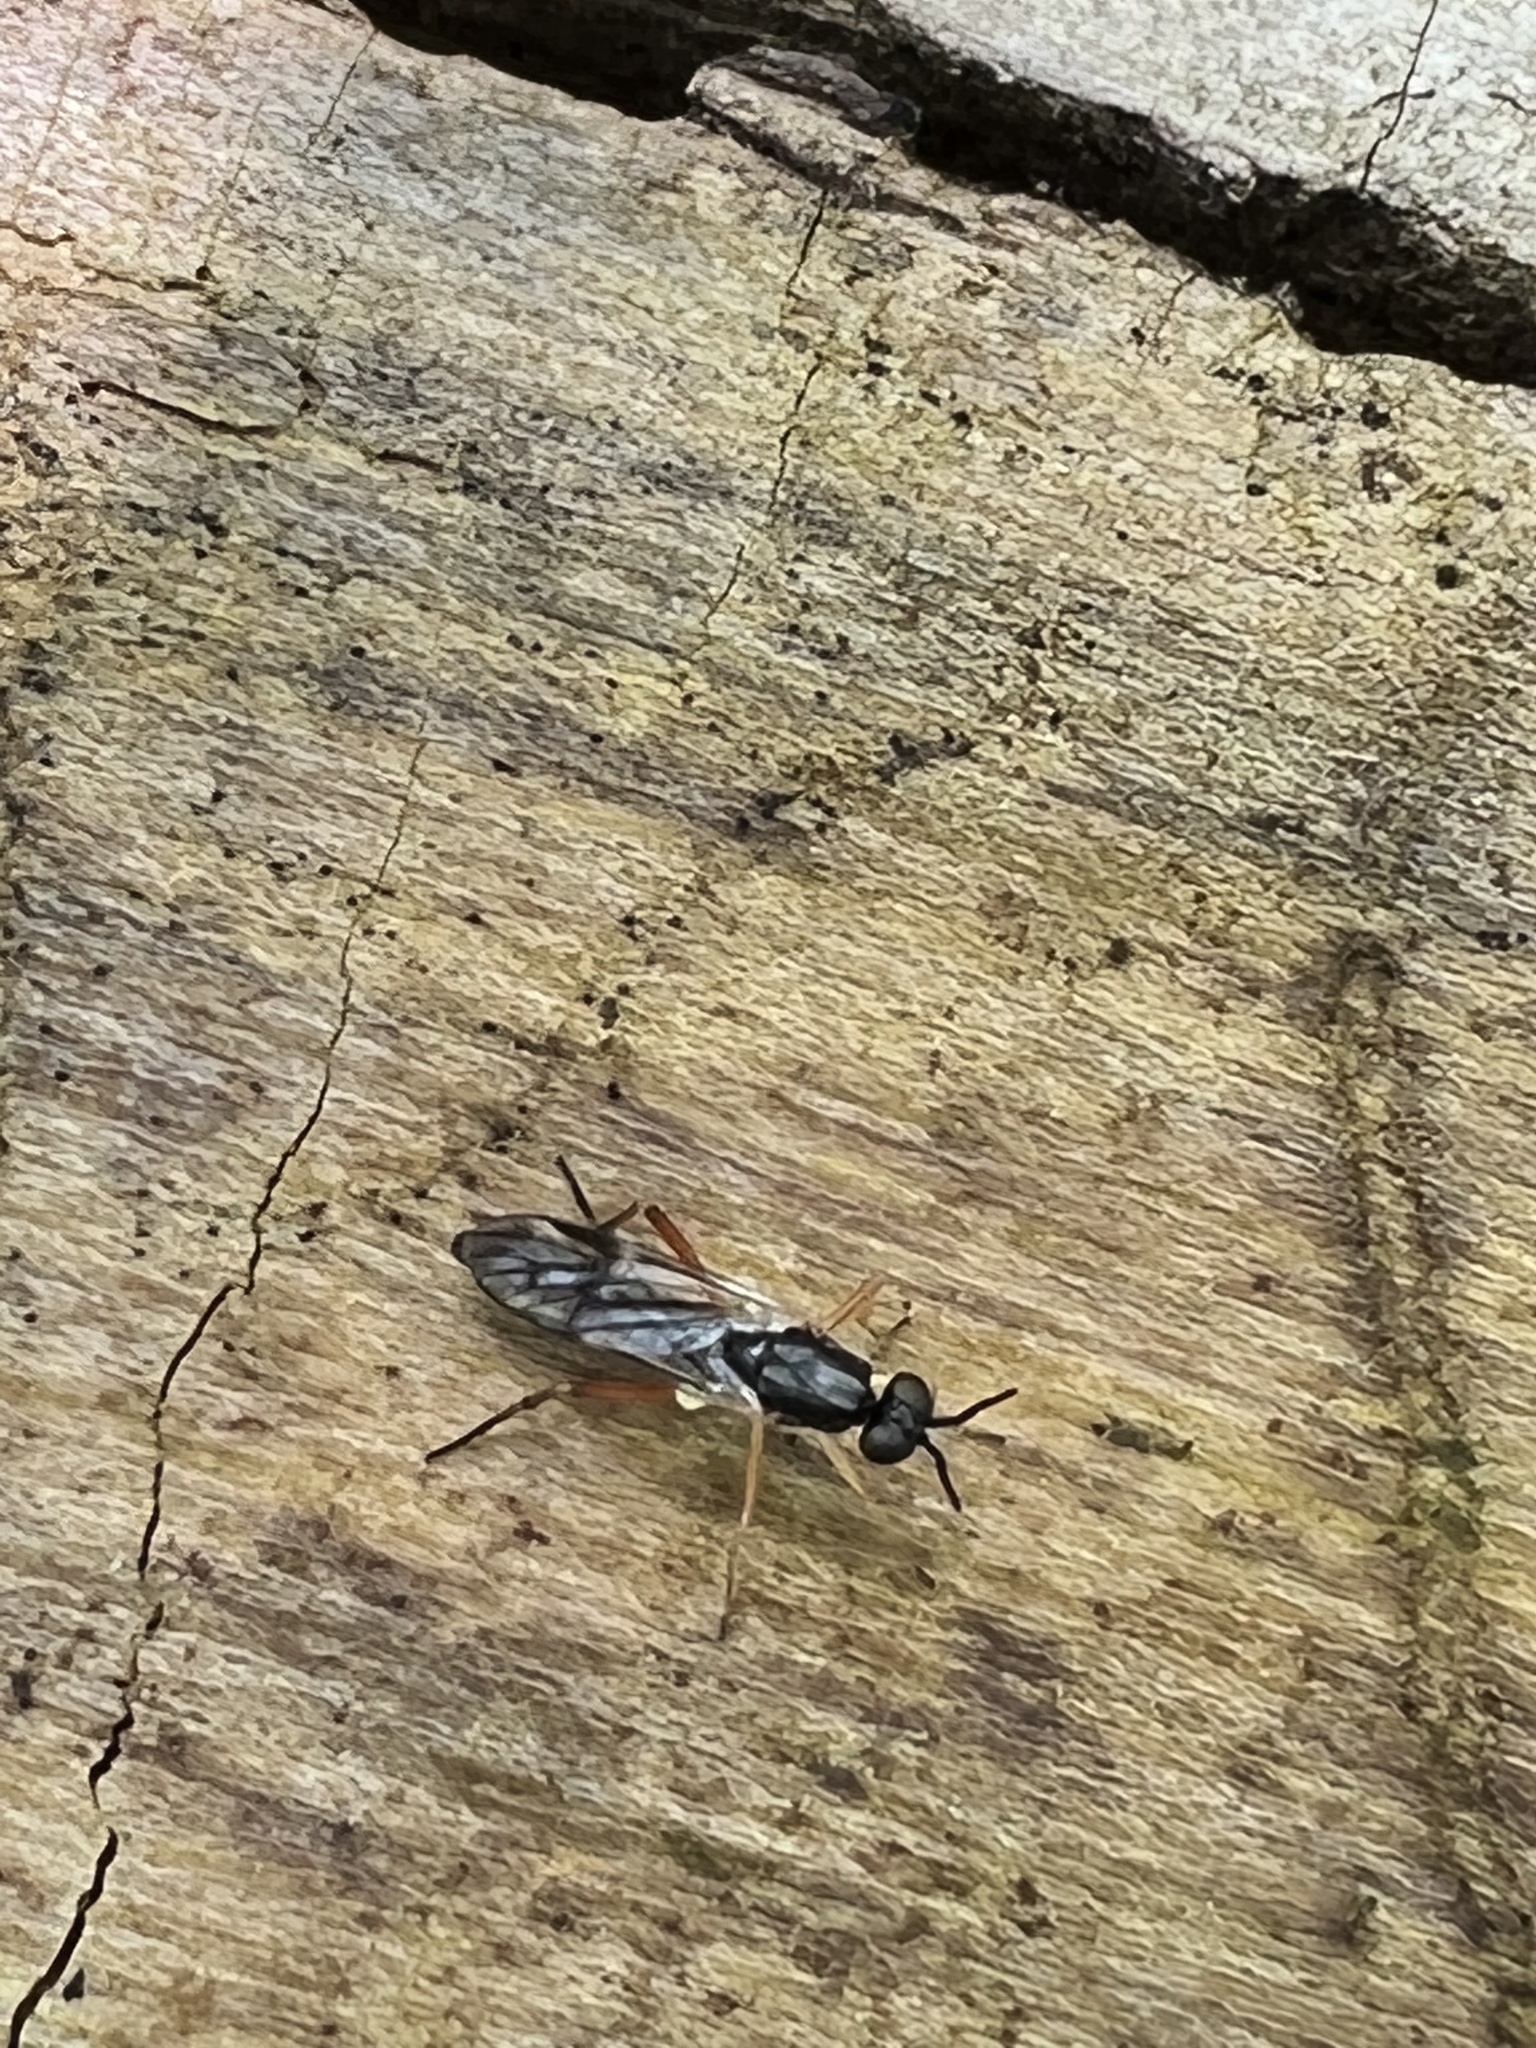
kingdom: Animalia
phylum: Arthropoda
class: Insecta
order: Diptera
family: Xylophagidae
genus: Xylophagus
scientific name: Xylophagus reflectens
